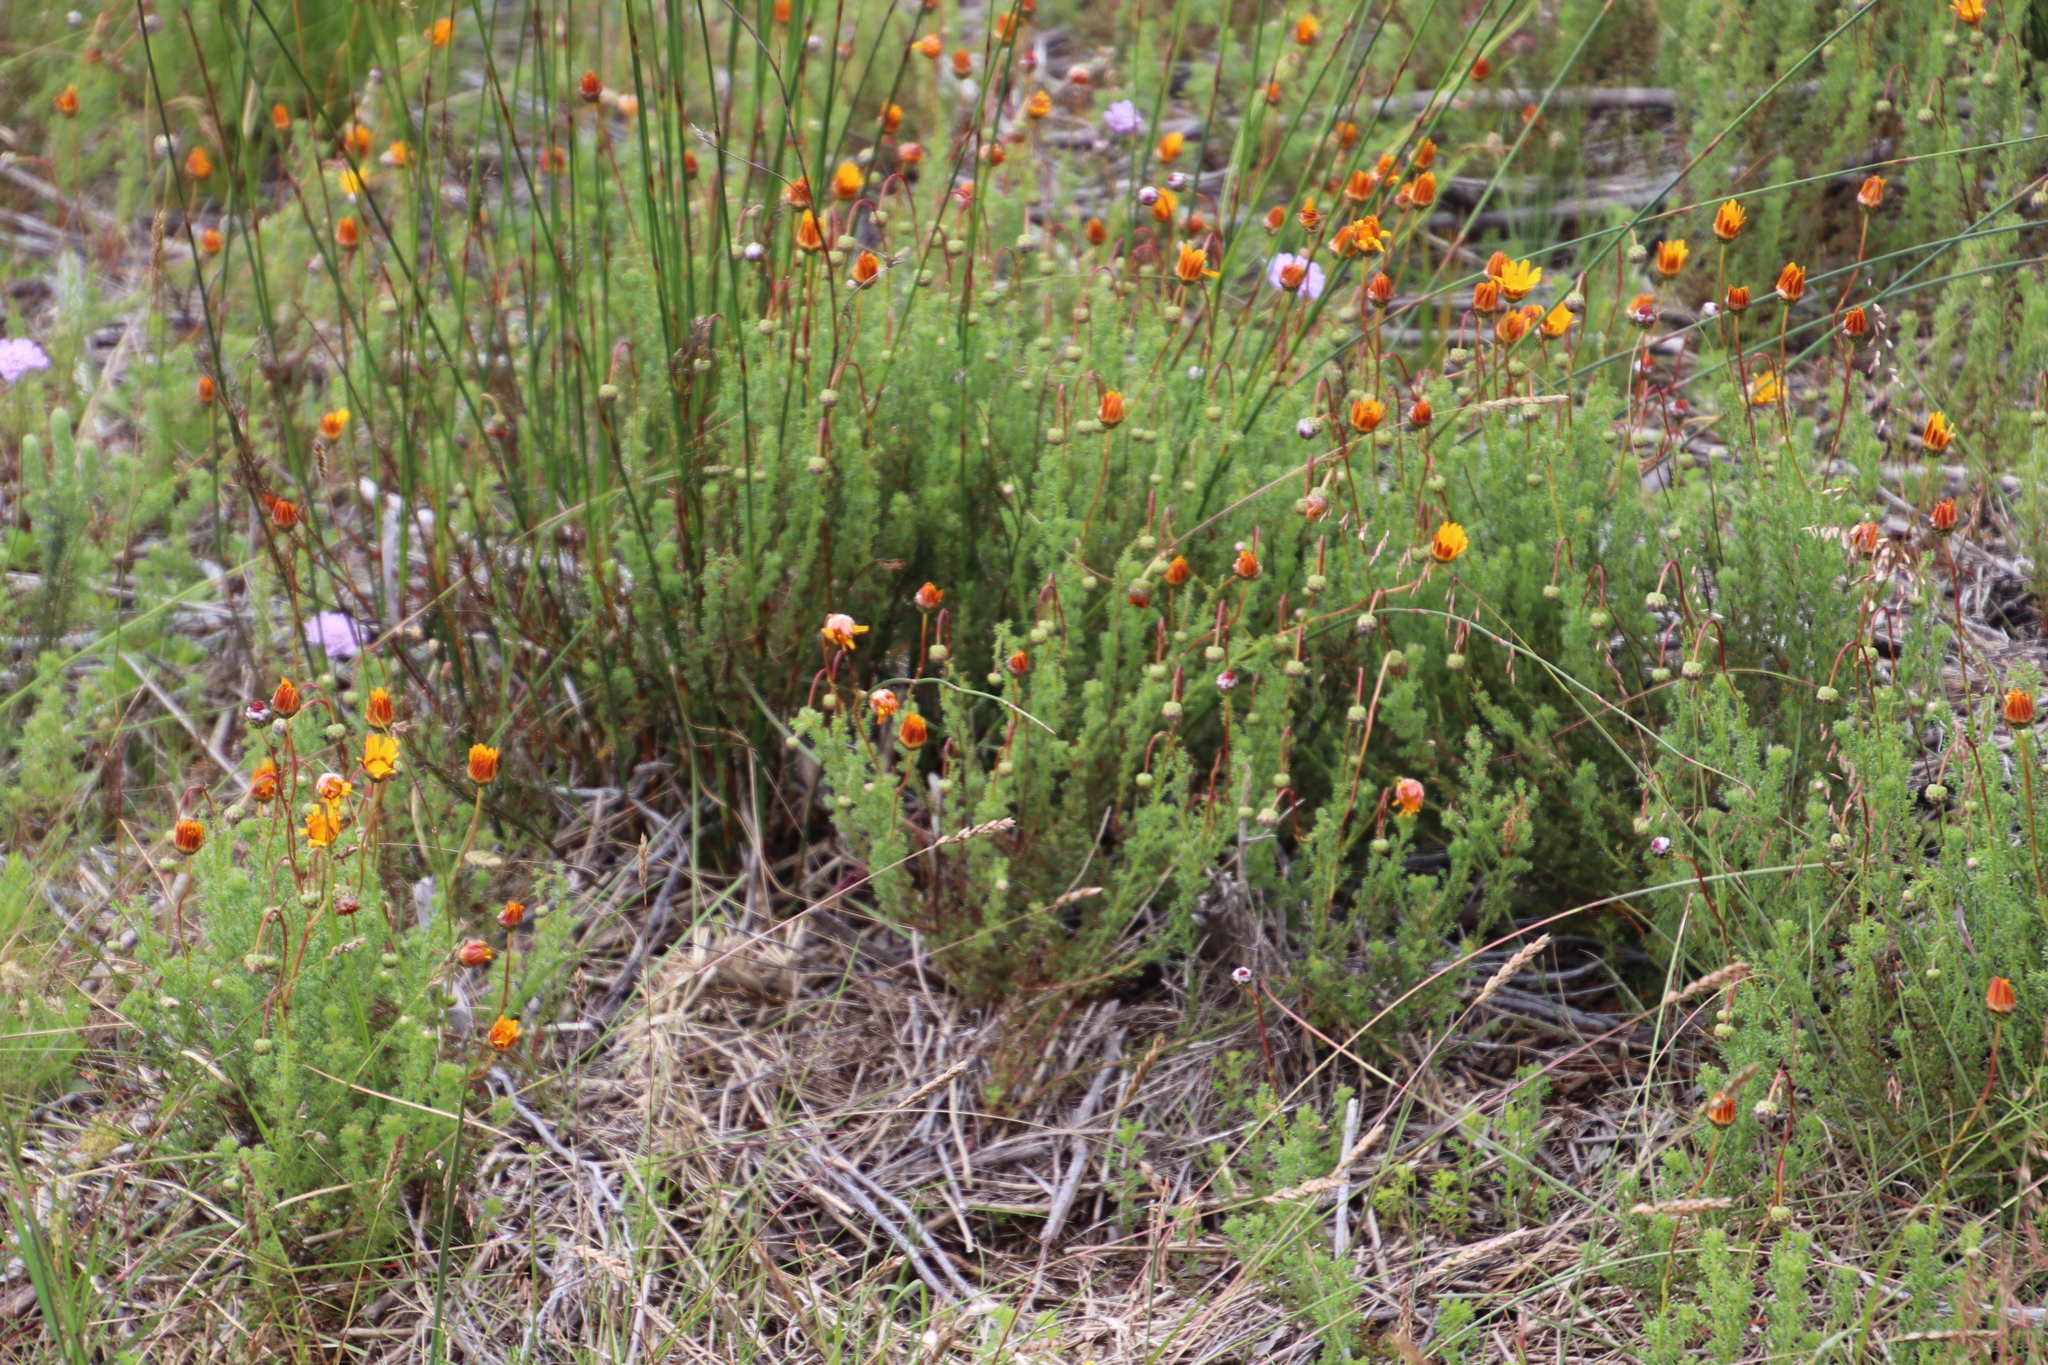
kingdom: Plantae
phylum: Tracheophyta
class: Magnoliopsida
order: Asterales
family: Asteraceae
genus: Ursinia
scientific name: Ursinia dentata
